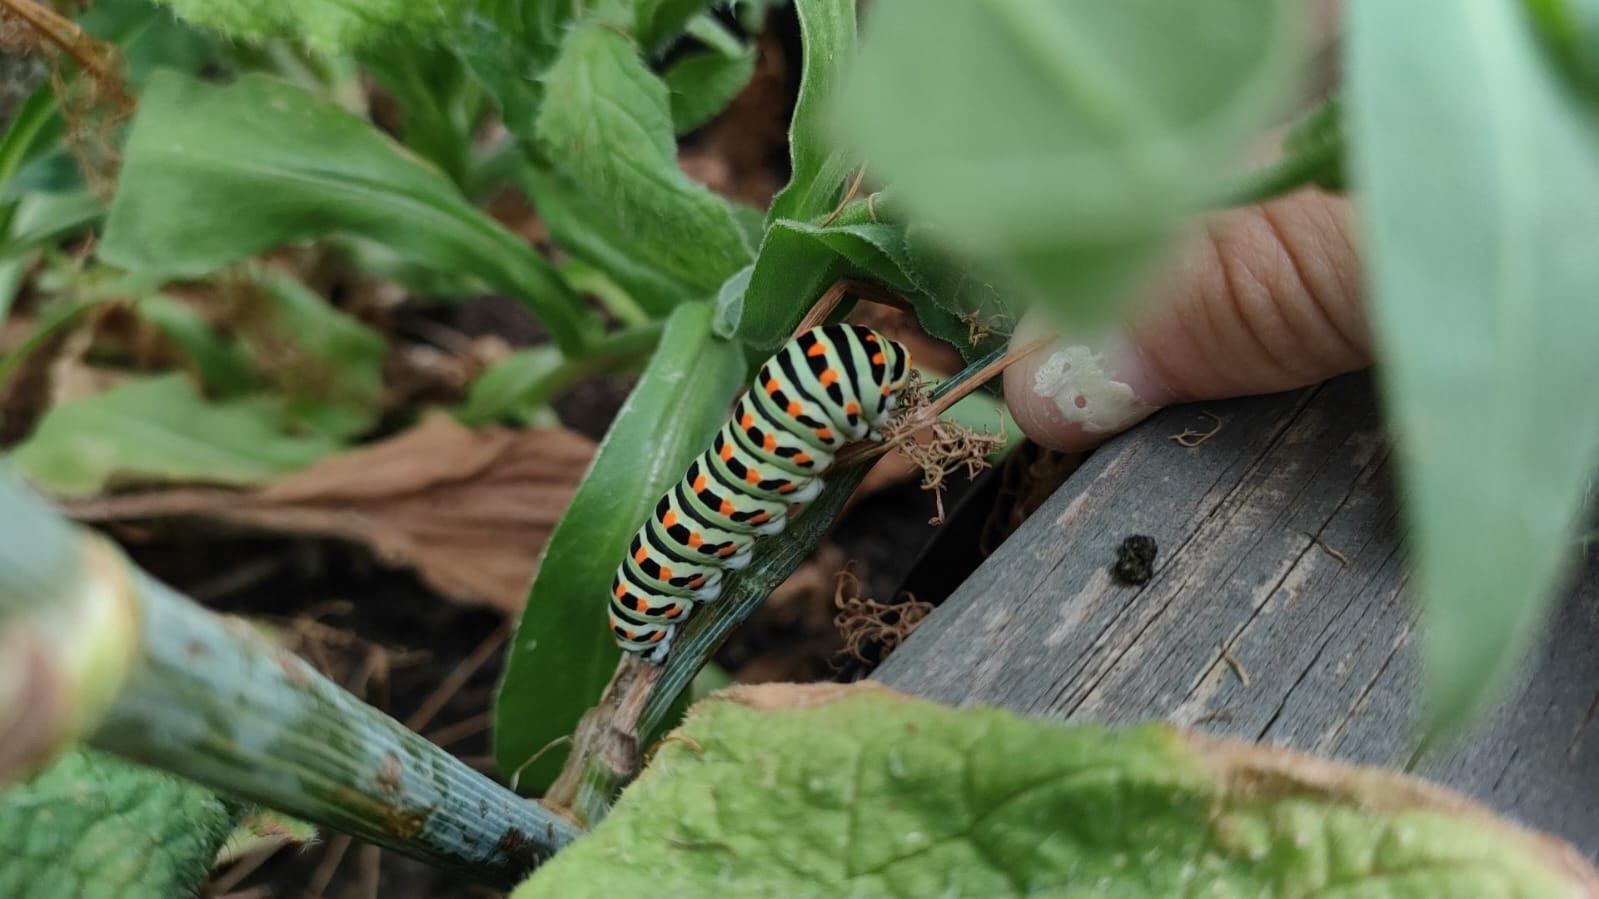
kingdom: Animalia
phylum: Arthropoda
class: Insecta
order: Lepidoptera
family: Papilionidae
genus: Papilio
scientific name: Papilio machaon
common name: Swallowtail
